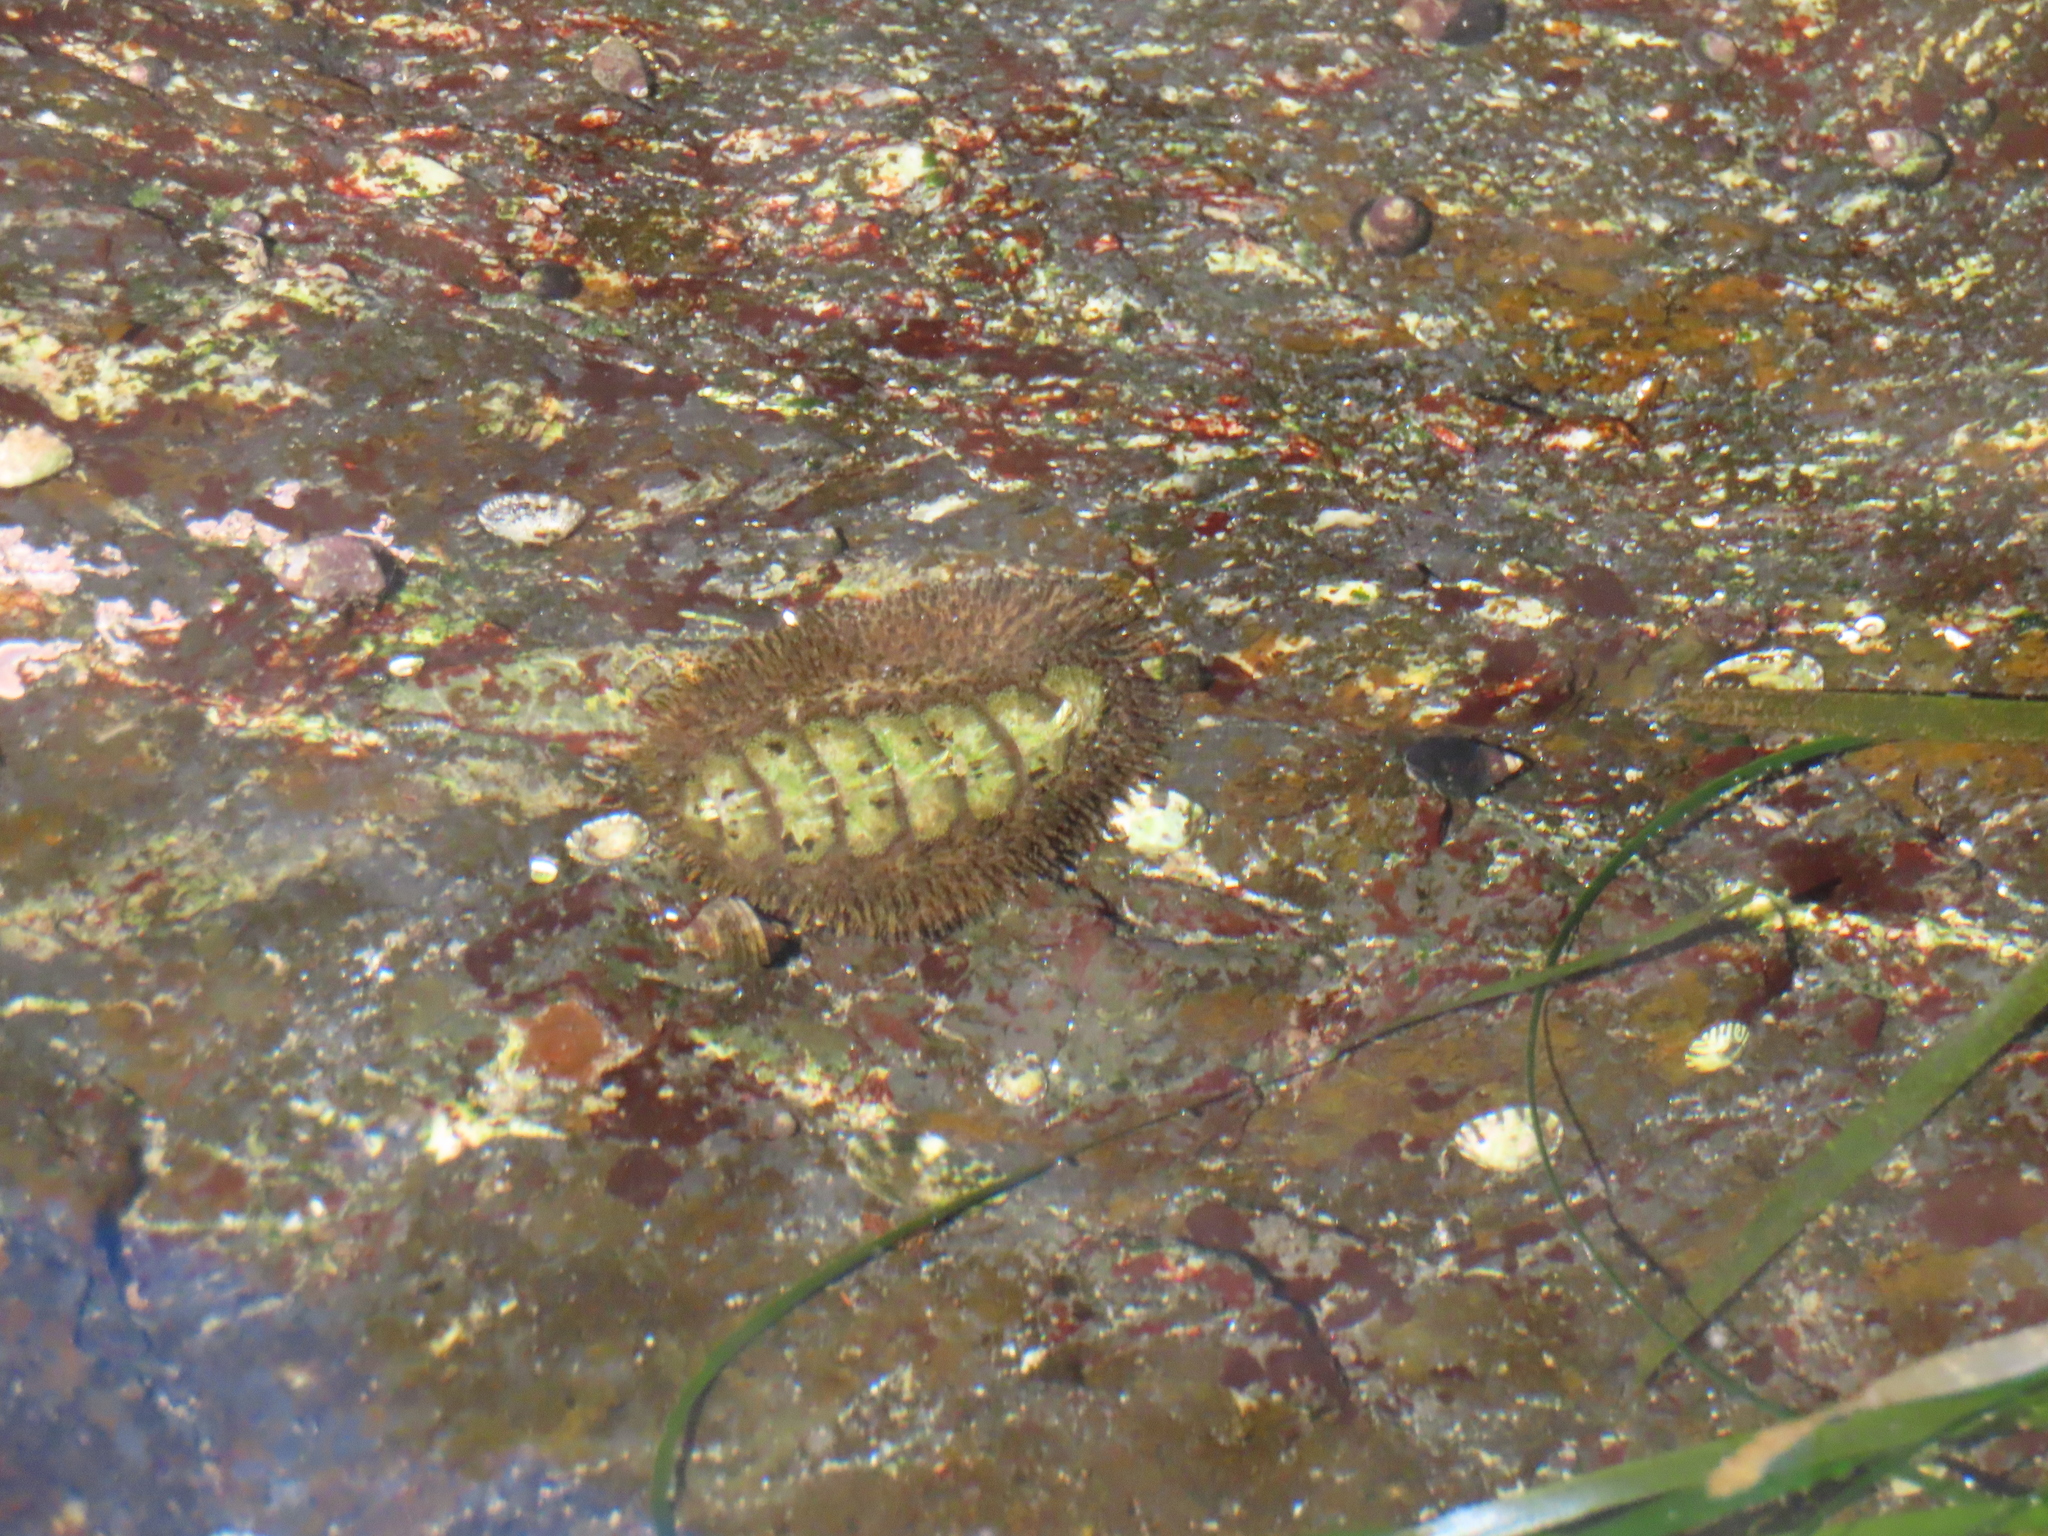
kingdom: Animalia
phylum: Mollusca
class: Polyplacophora
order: Chitonida
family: Mopaliidae
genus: Mopalia
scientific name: Mopalia muscosa
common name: Mossy chiton
